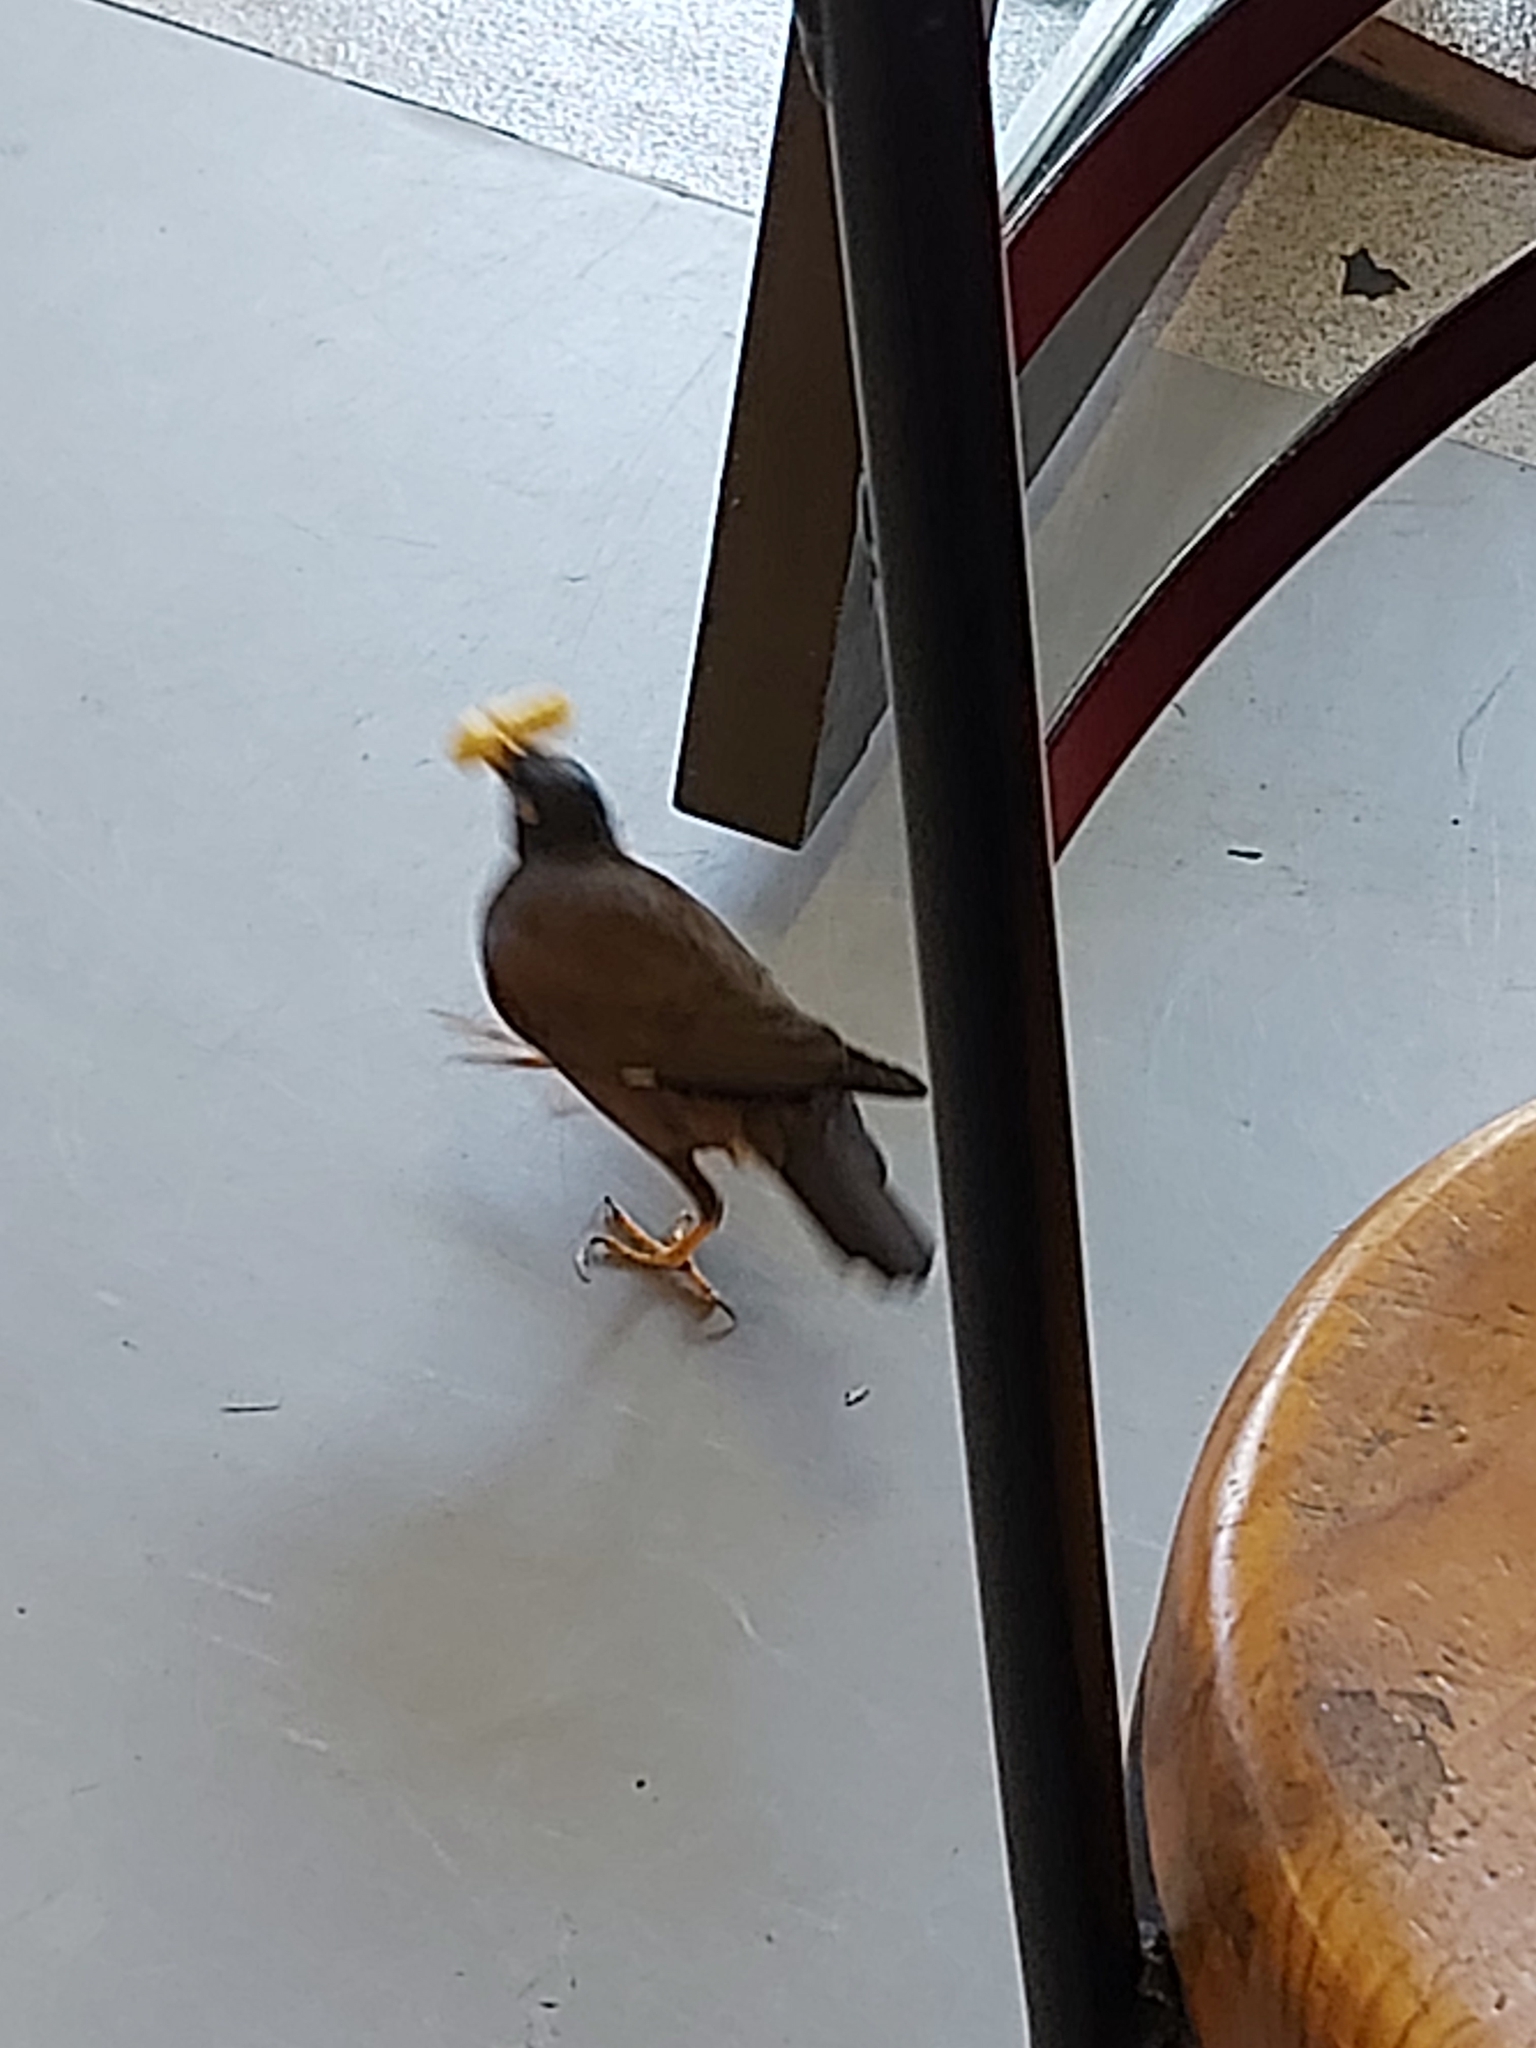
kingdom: Animalia
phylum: Chordata
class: Aves
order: Passeriformes
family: Sturnidae
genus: Acridotheres
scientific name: Acridotheres tristis
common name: Common myna
